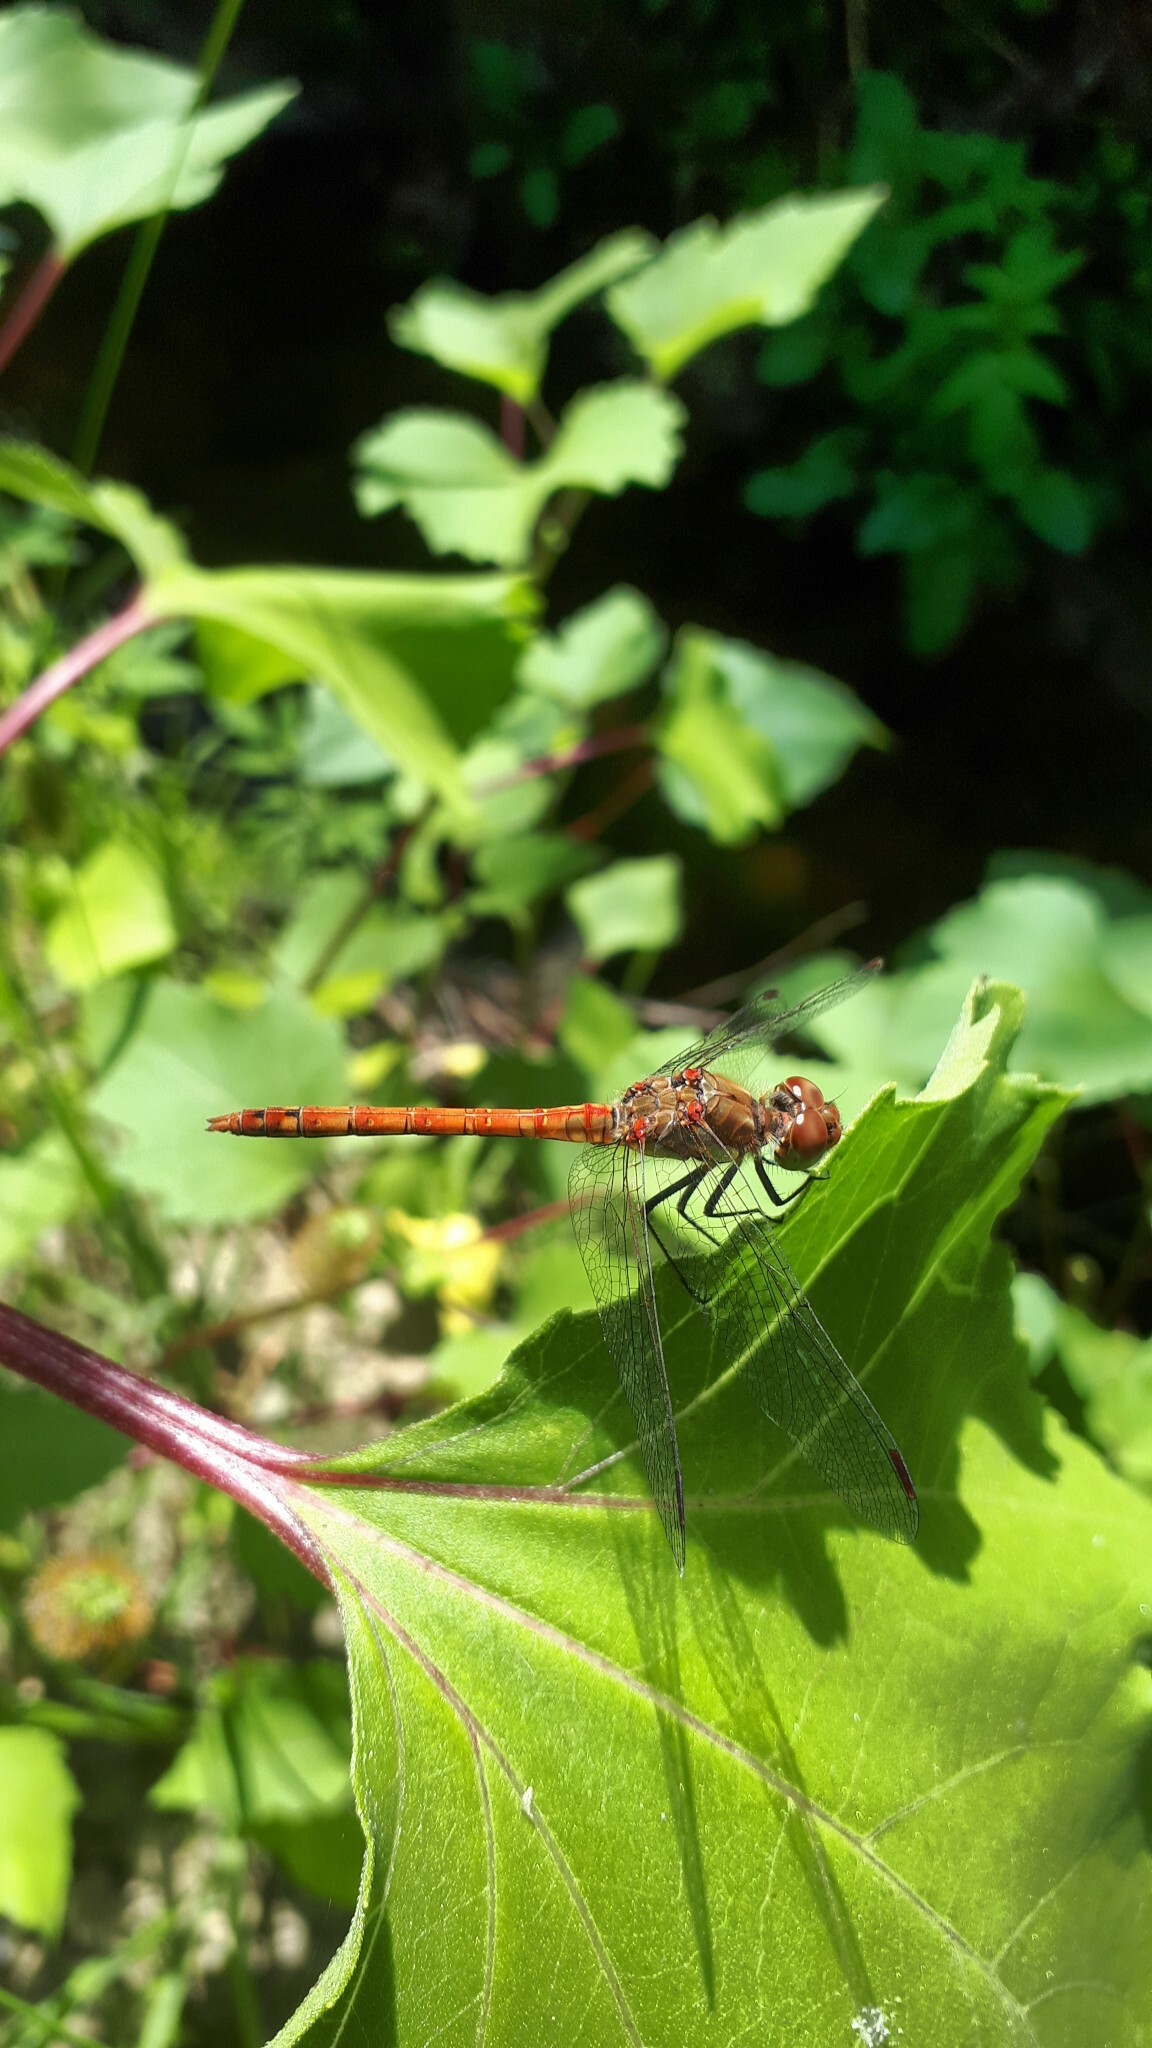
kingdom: Animalia
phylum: Arthropoda
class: Insecta
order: Odonata
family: Libellulidae
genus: Sympetrum
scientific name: Sympetrum striolatum
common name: Common darter
